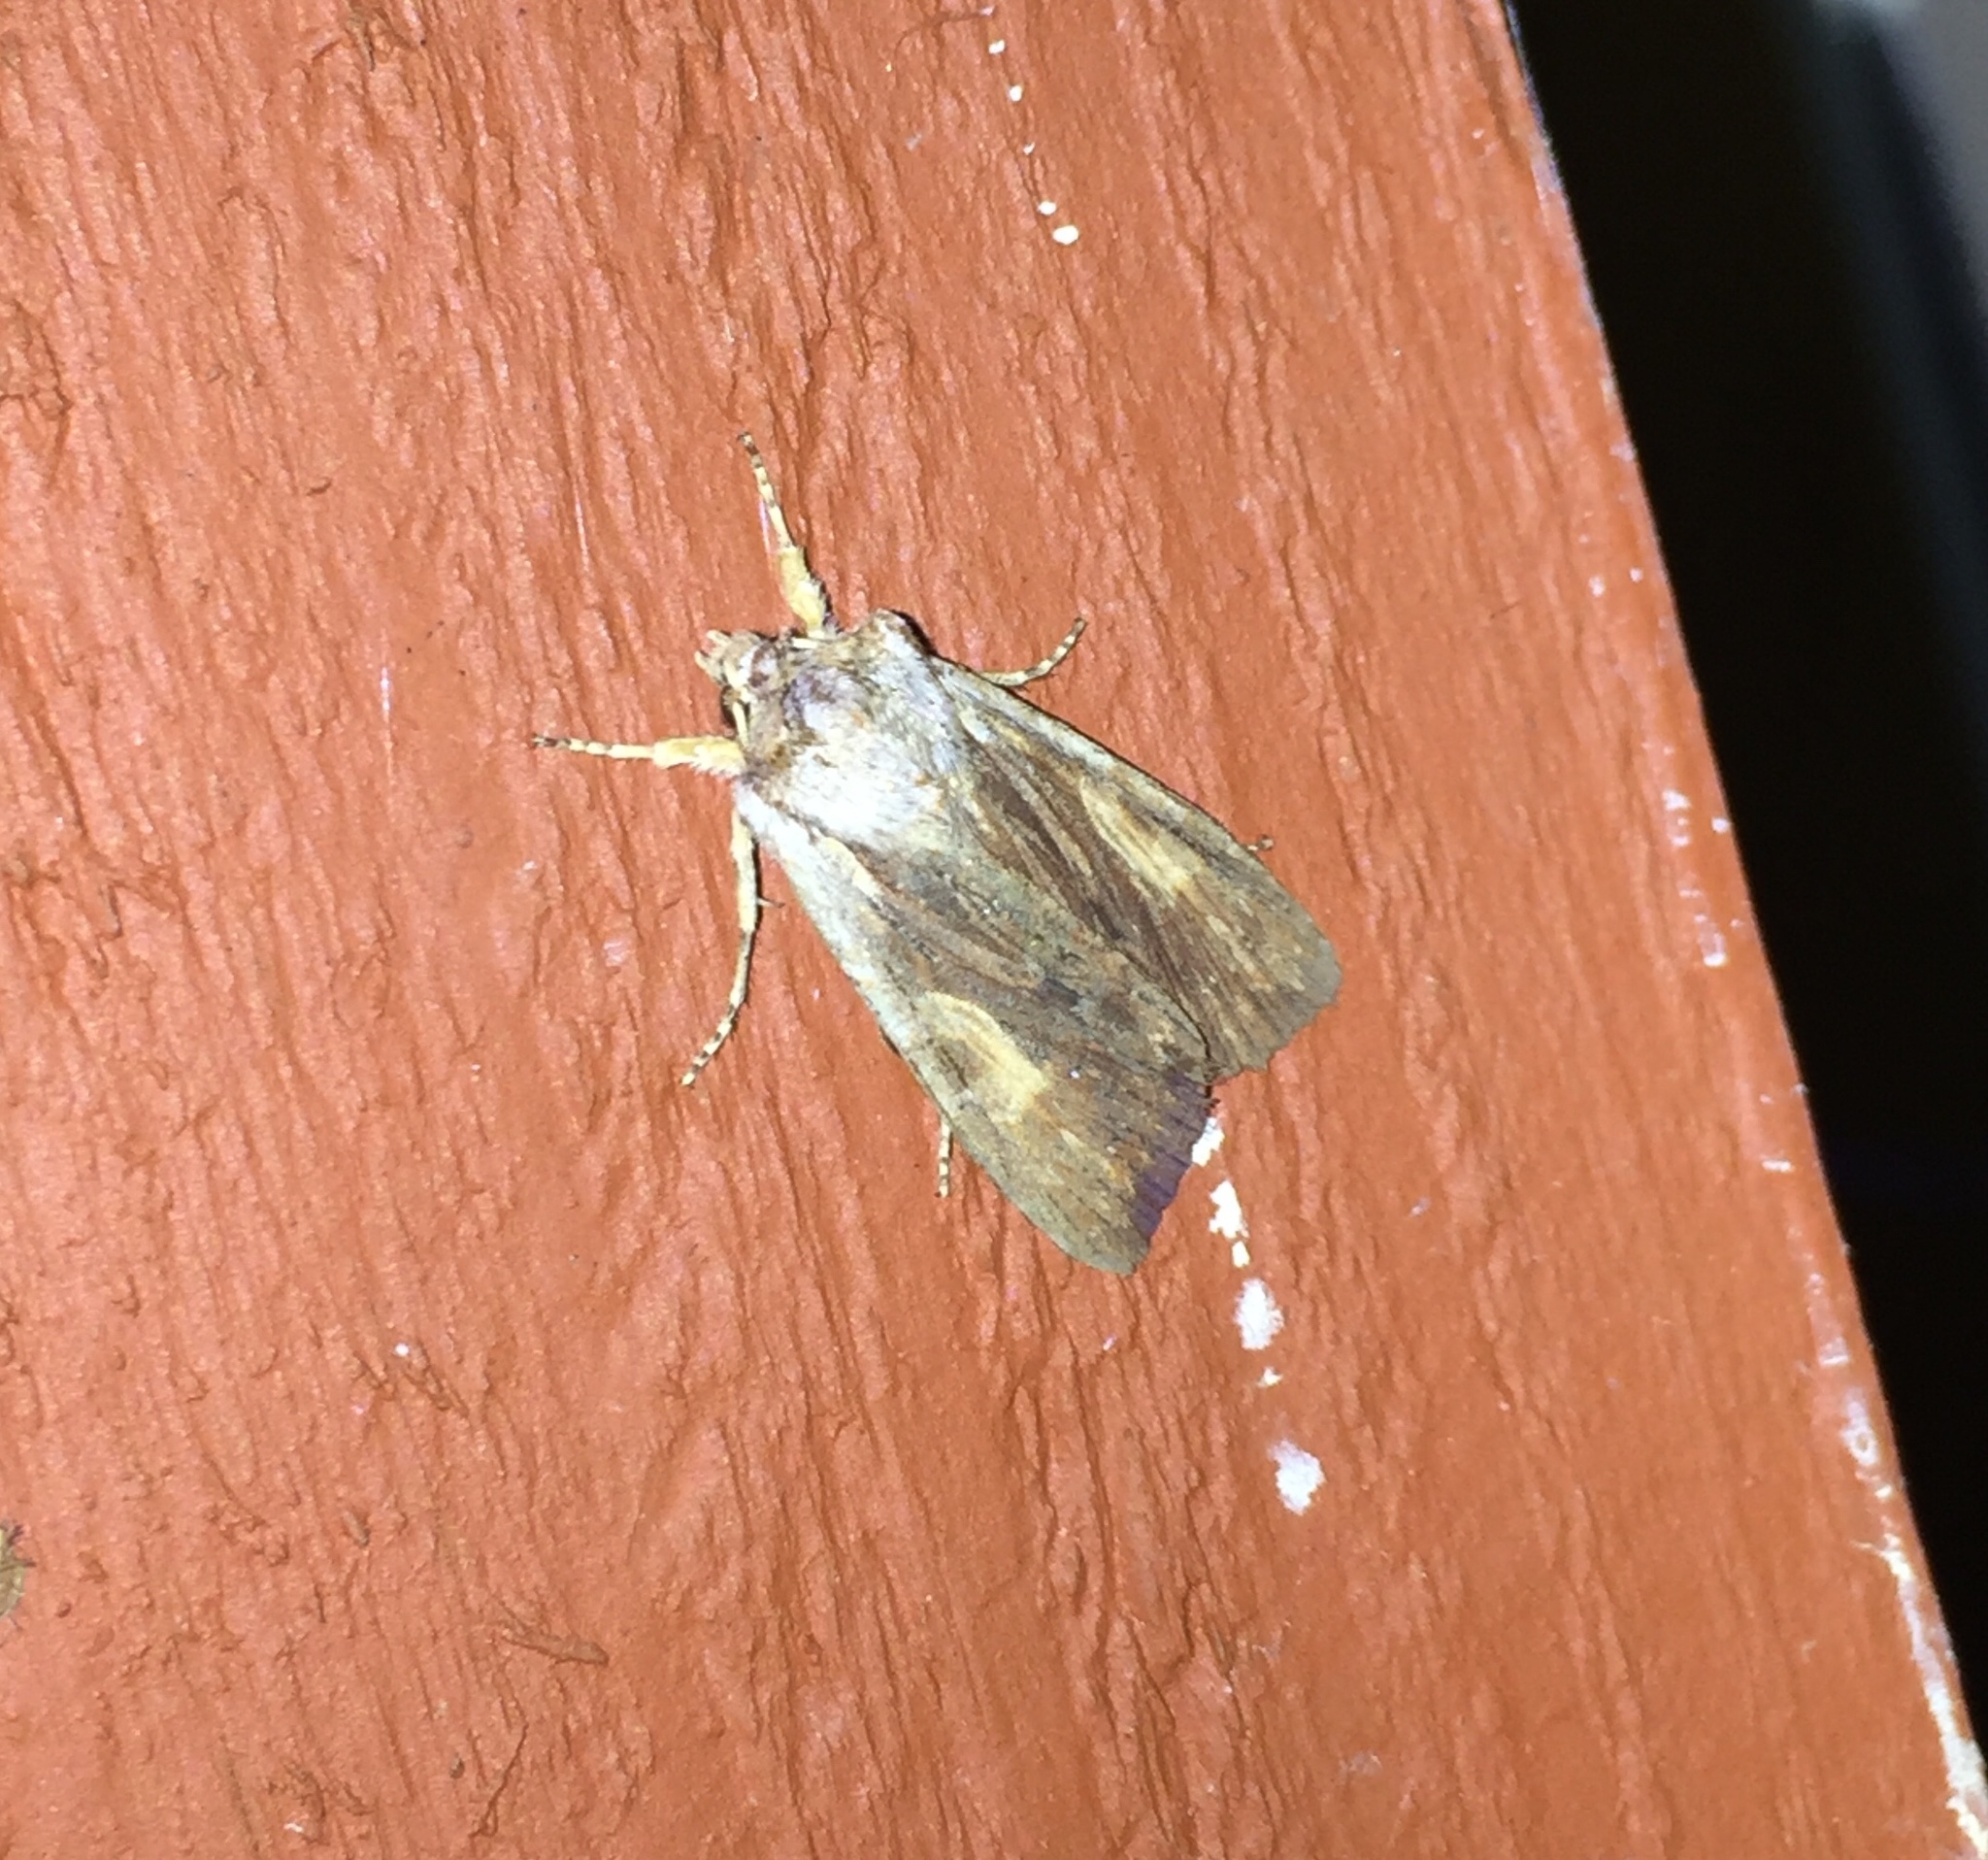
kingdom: Animalia
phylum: Arthropoda
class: Insecta
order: Lepidoptera
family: Noctuidae
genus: Lithophane
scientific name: Lithophane petulca
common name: Wanton pinion
